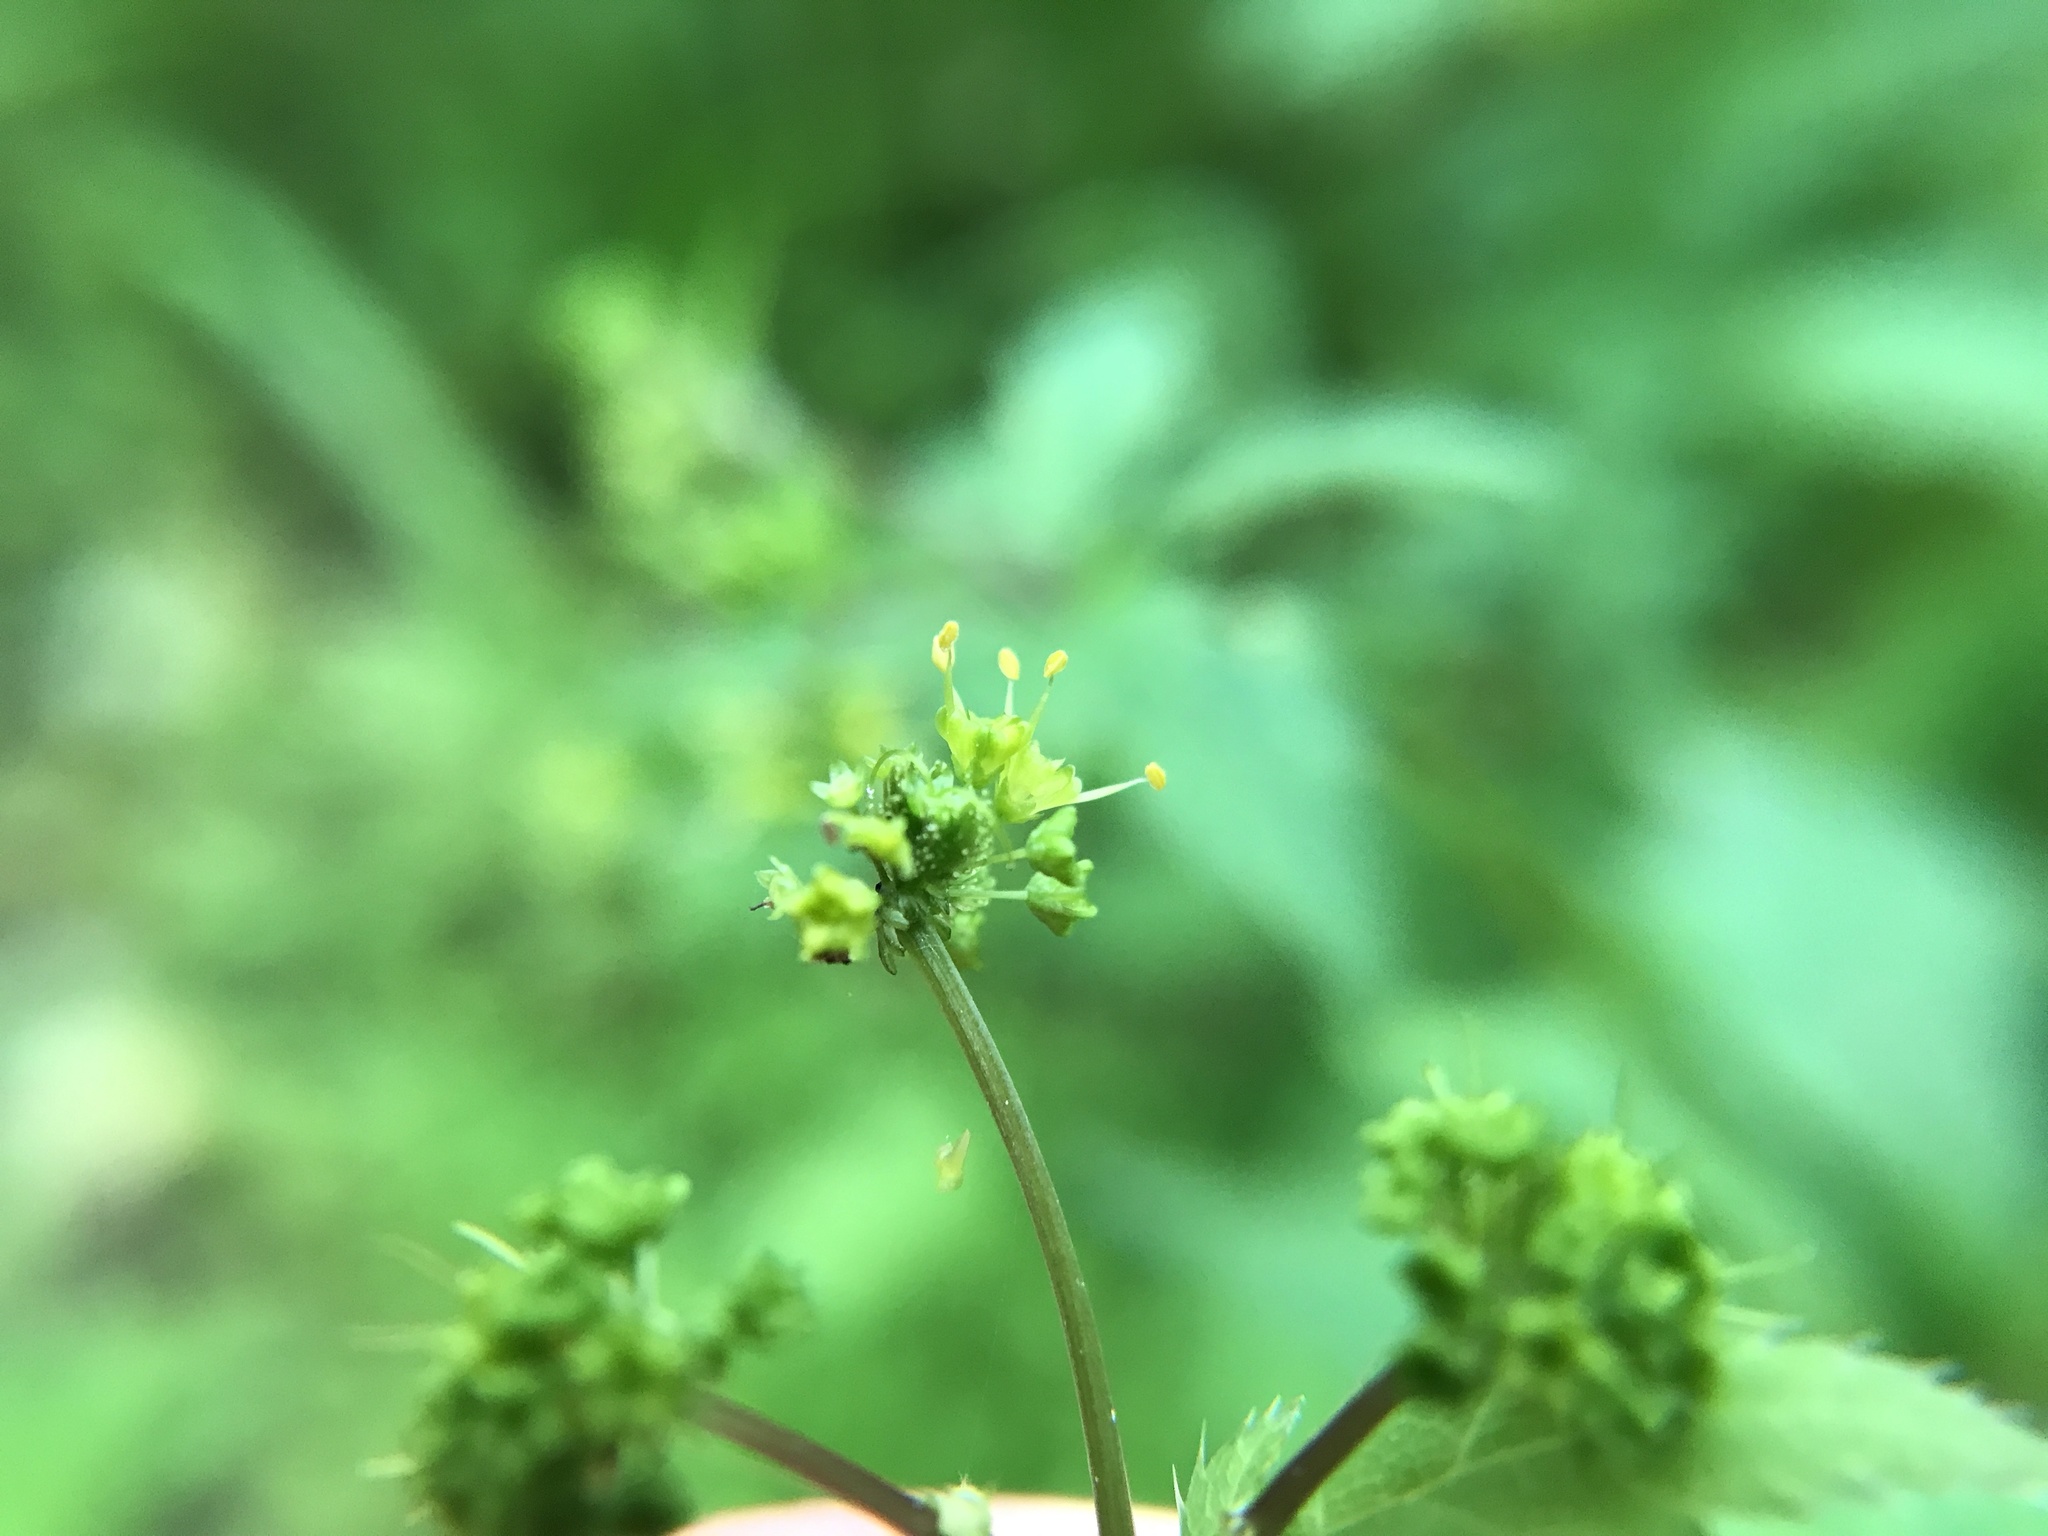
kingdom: Plantae
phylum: Tracheophyta
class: Magnoliopsida
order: Apiales
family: Apiaceae
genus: Sanicula
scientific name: Sanicula odorata
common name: Cluster sanicle
